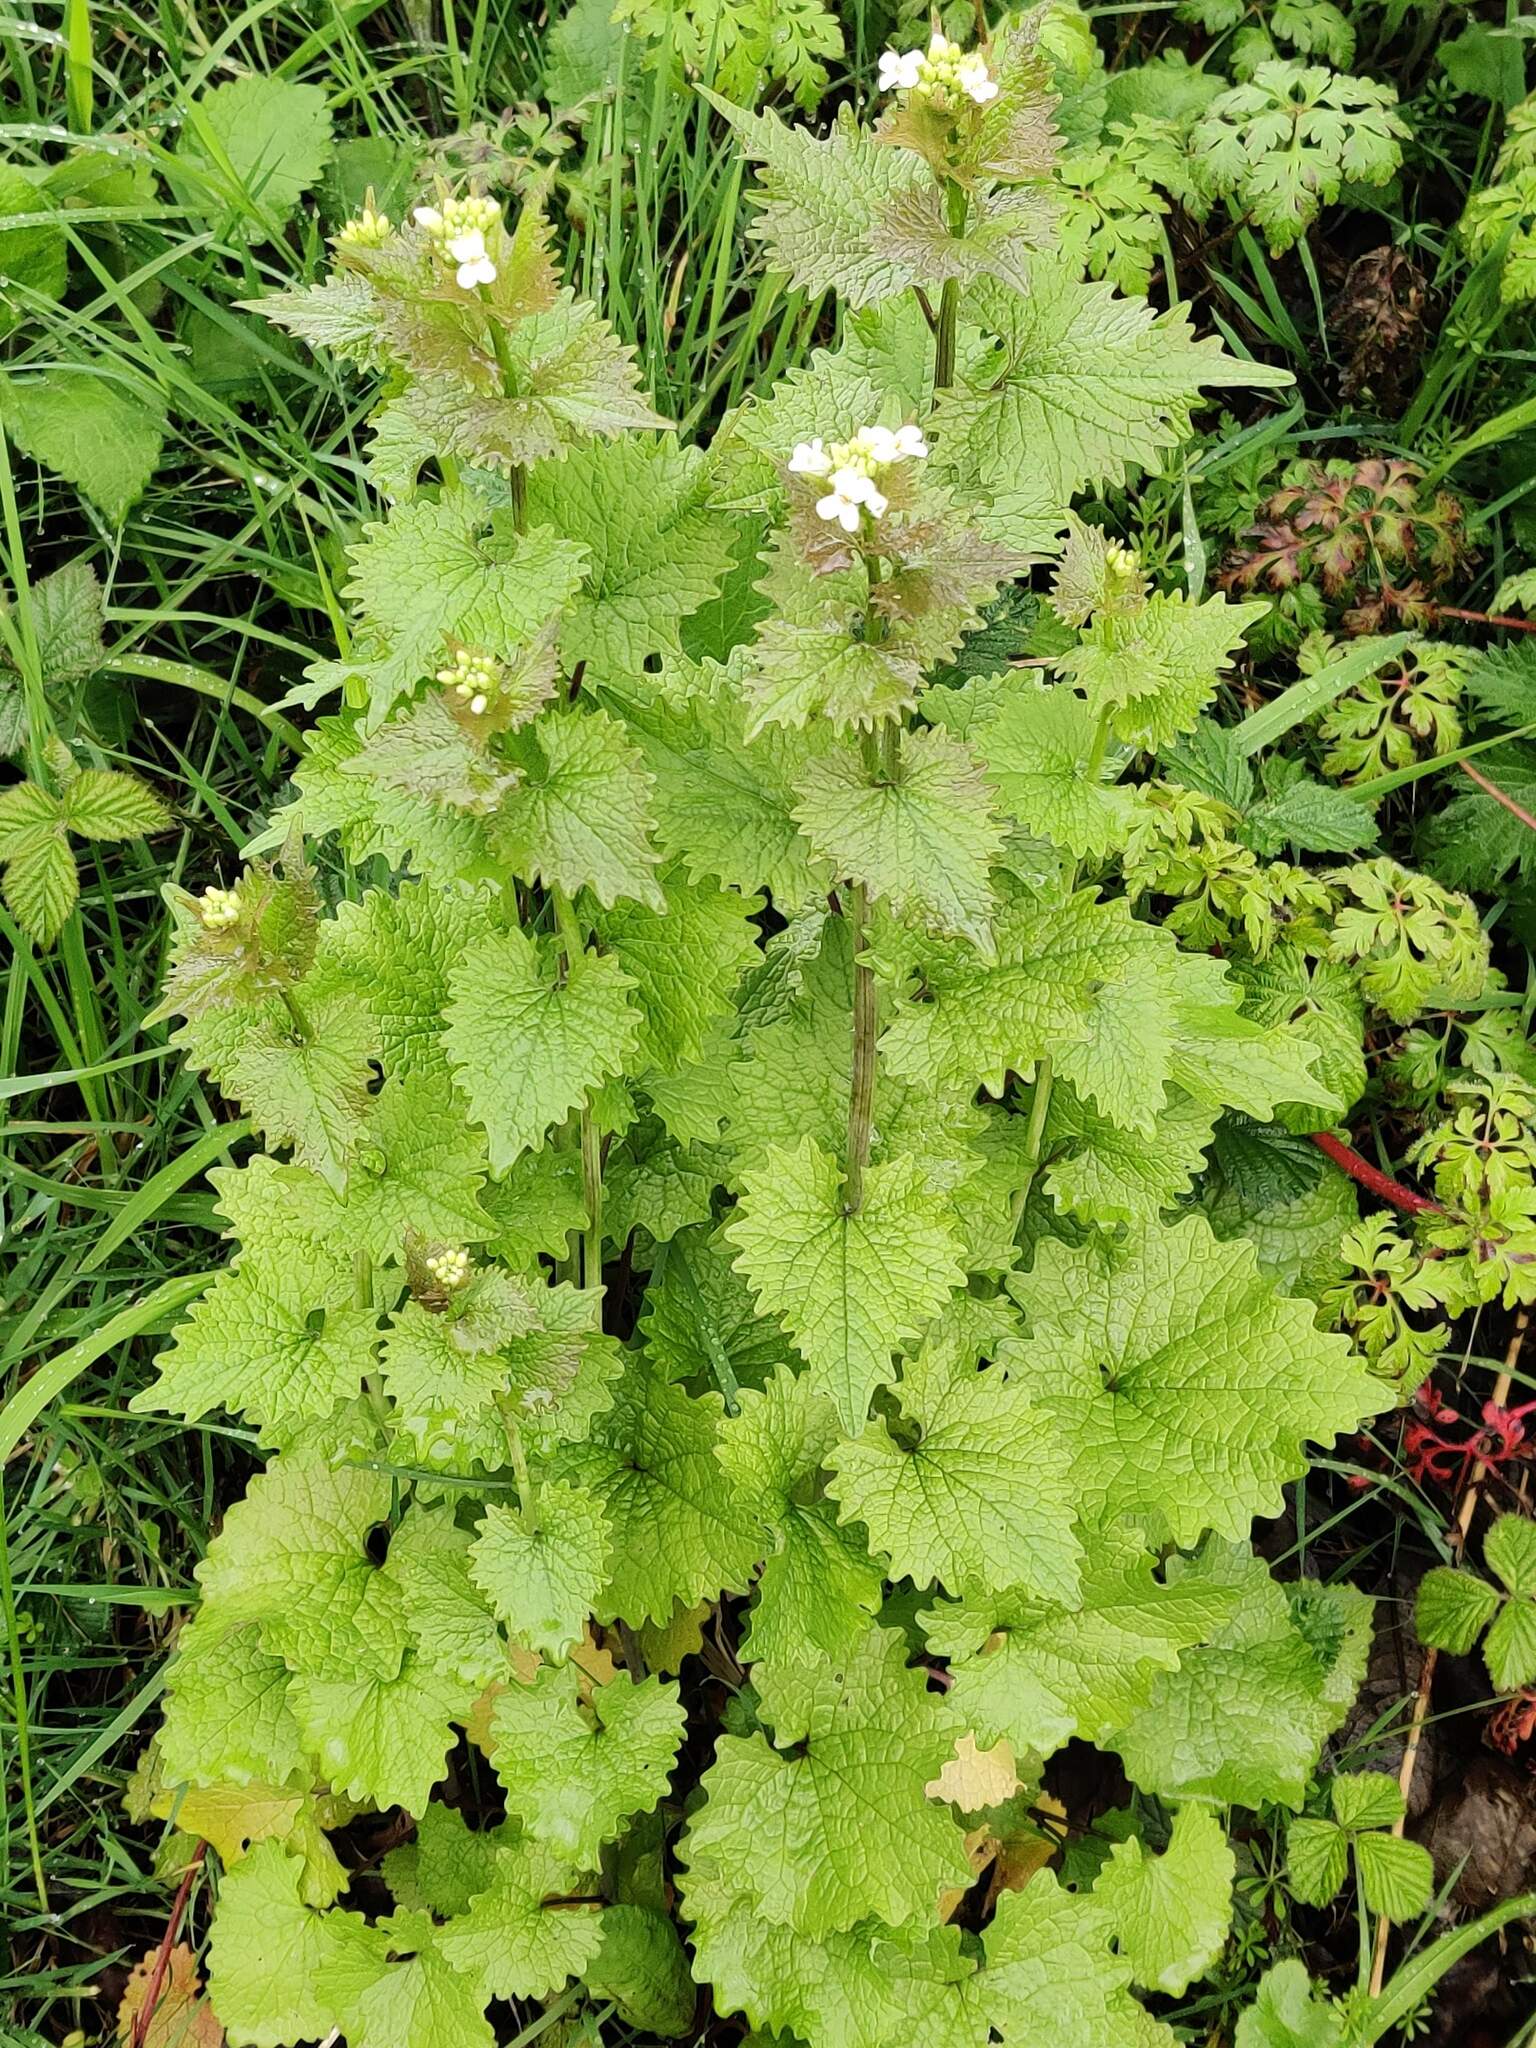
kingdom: Plantae
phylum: Tracheophyta
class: Magnoliopsida
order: Brassicales
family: Brassicaceae
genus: Alliaria
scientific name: Alliaria petiolata
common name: Garlic mustard
